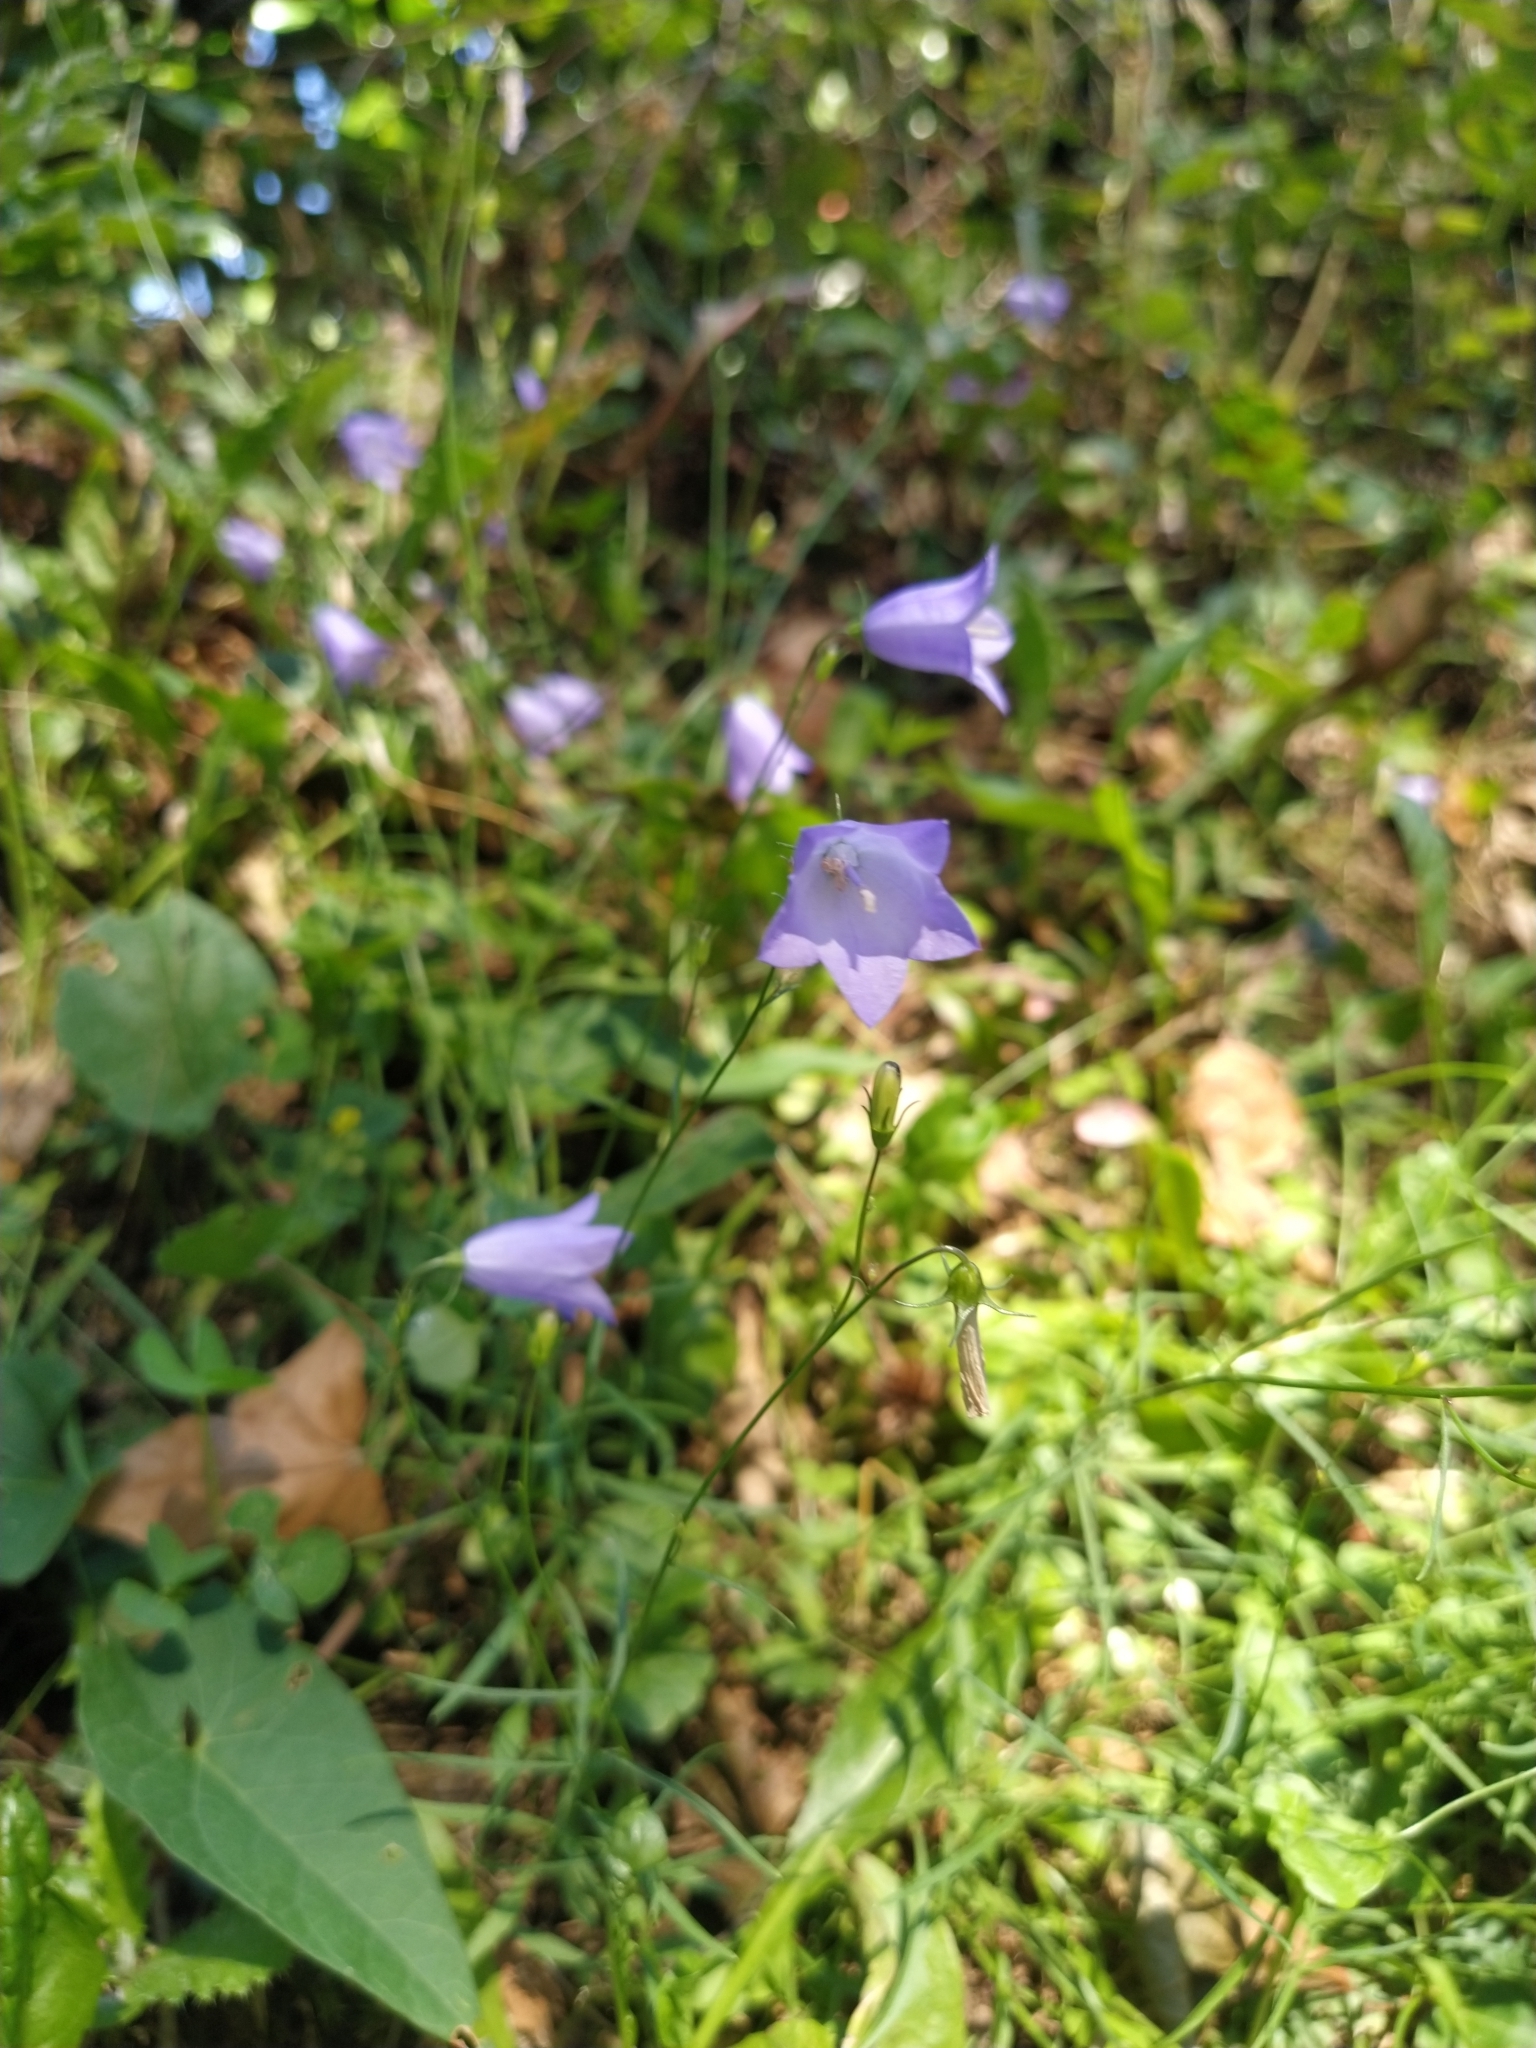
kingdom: Plantae
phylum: Tracheophyta
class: Magnoliopsida
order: Asterales
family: Campanulaceae
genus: Campanula
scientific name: Campanula rotundifolia
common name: Harebell
